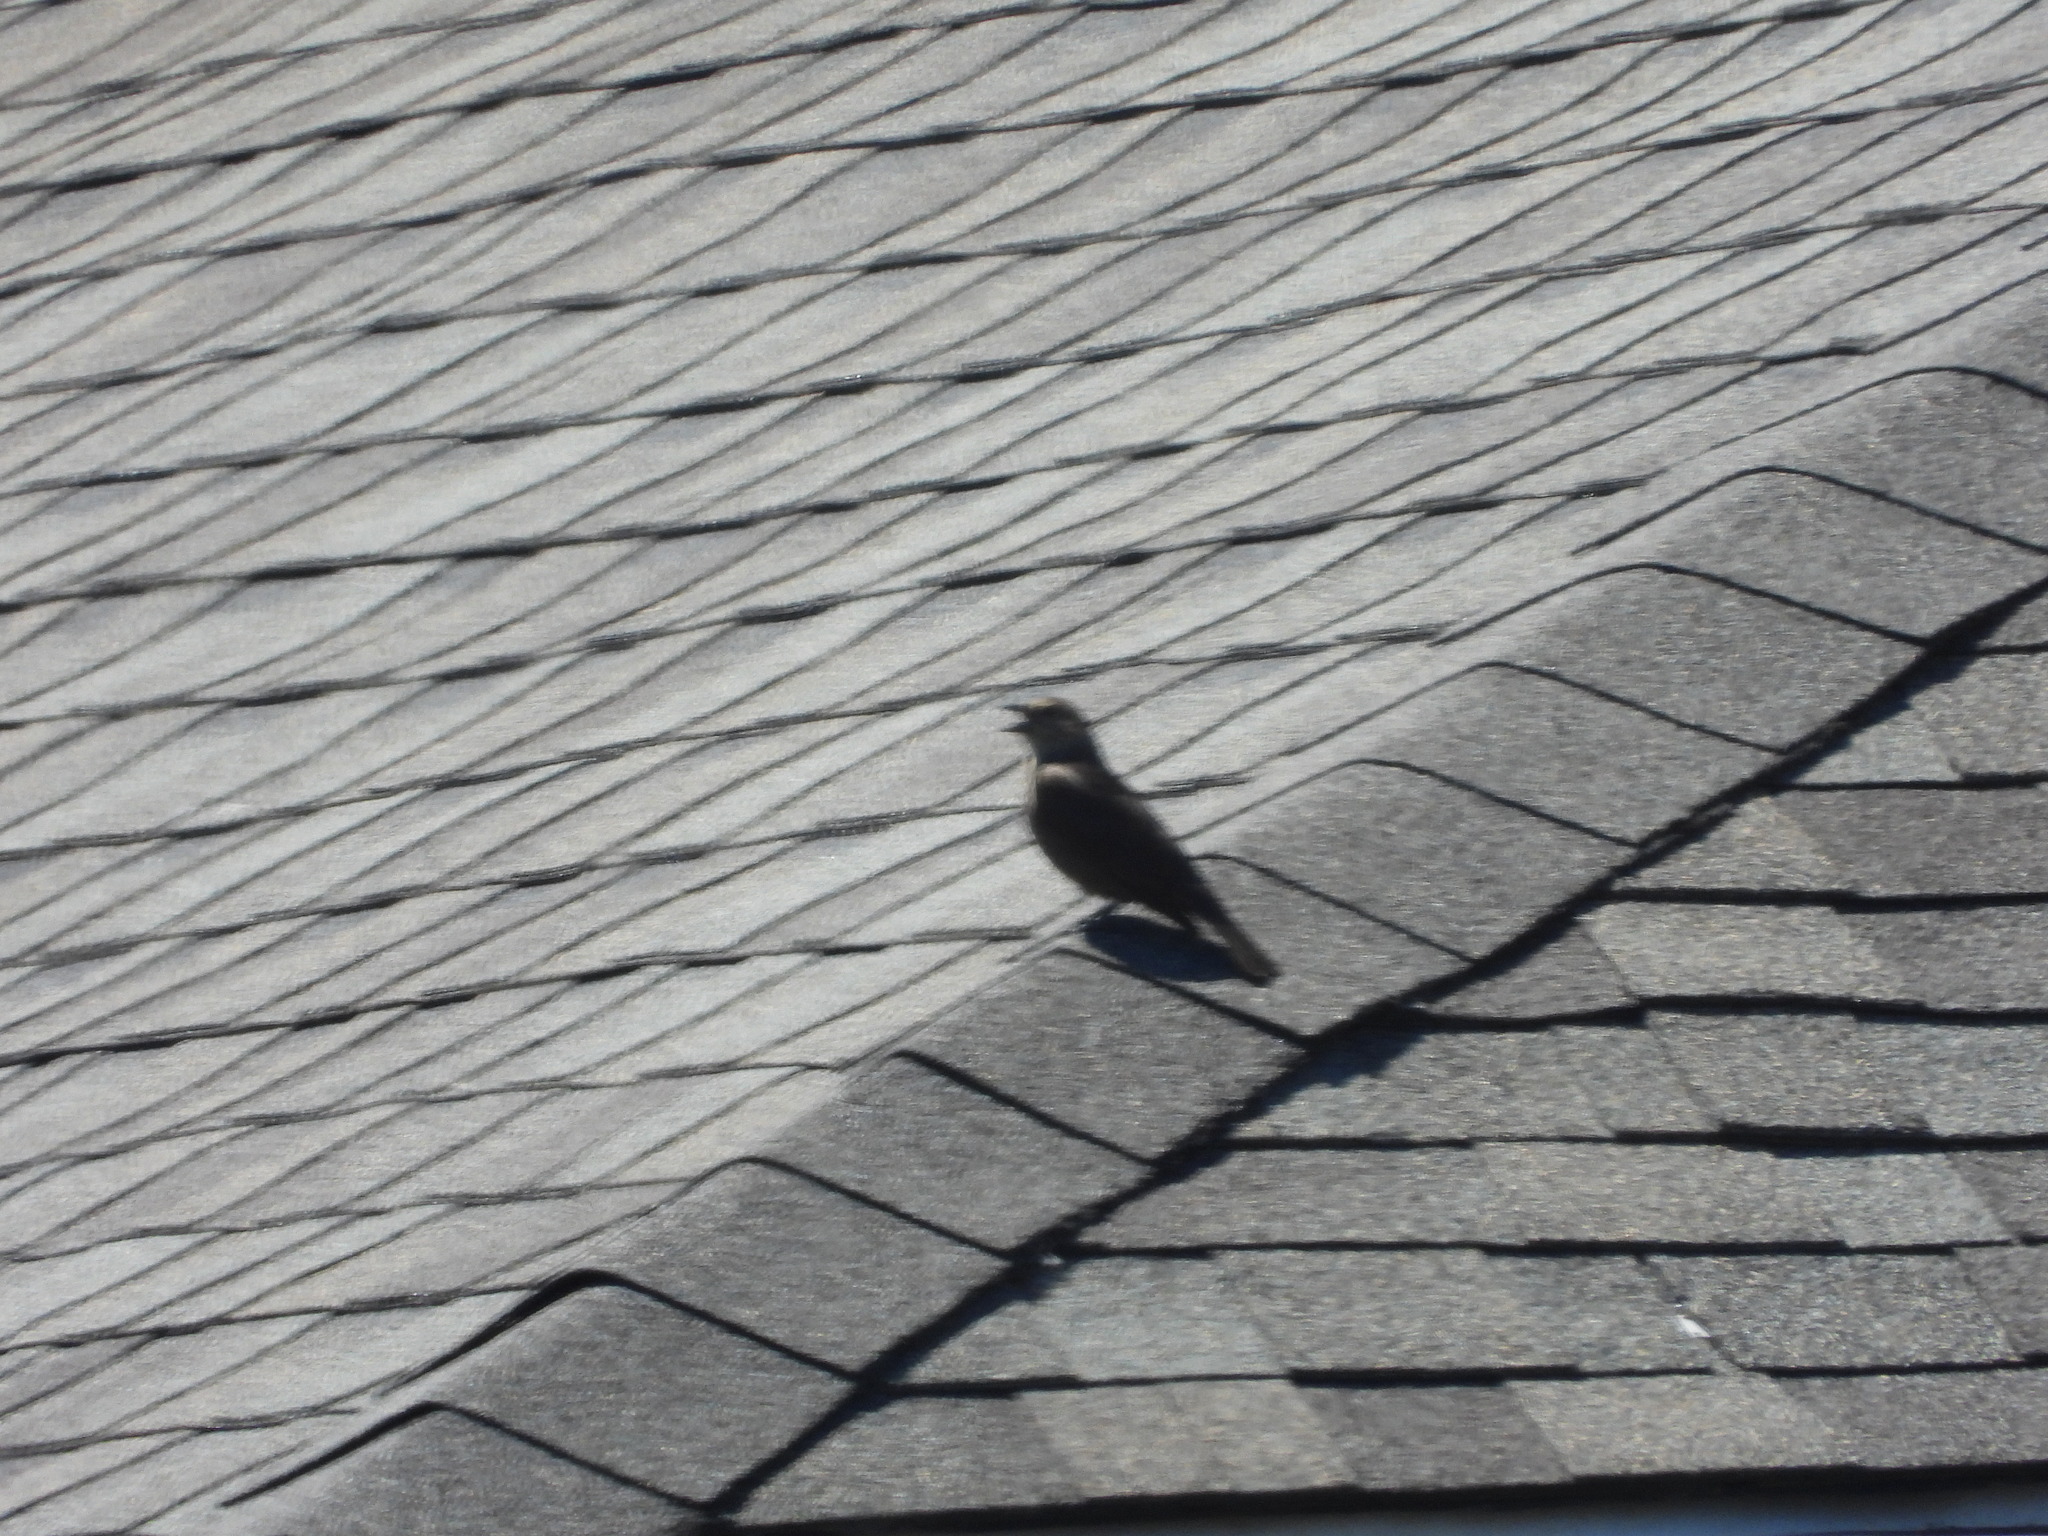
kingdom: Animalia
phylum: Chordata
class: Aves
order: Passeriformes
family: Icteridae
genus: Molothrus
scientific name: Molothrus ater
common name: Brown-headed cowbird
